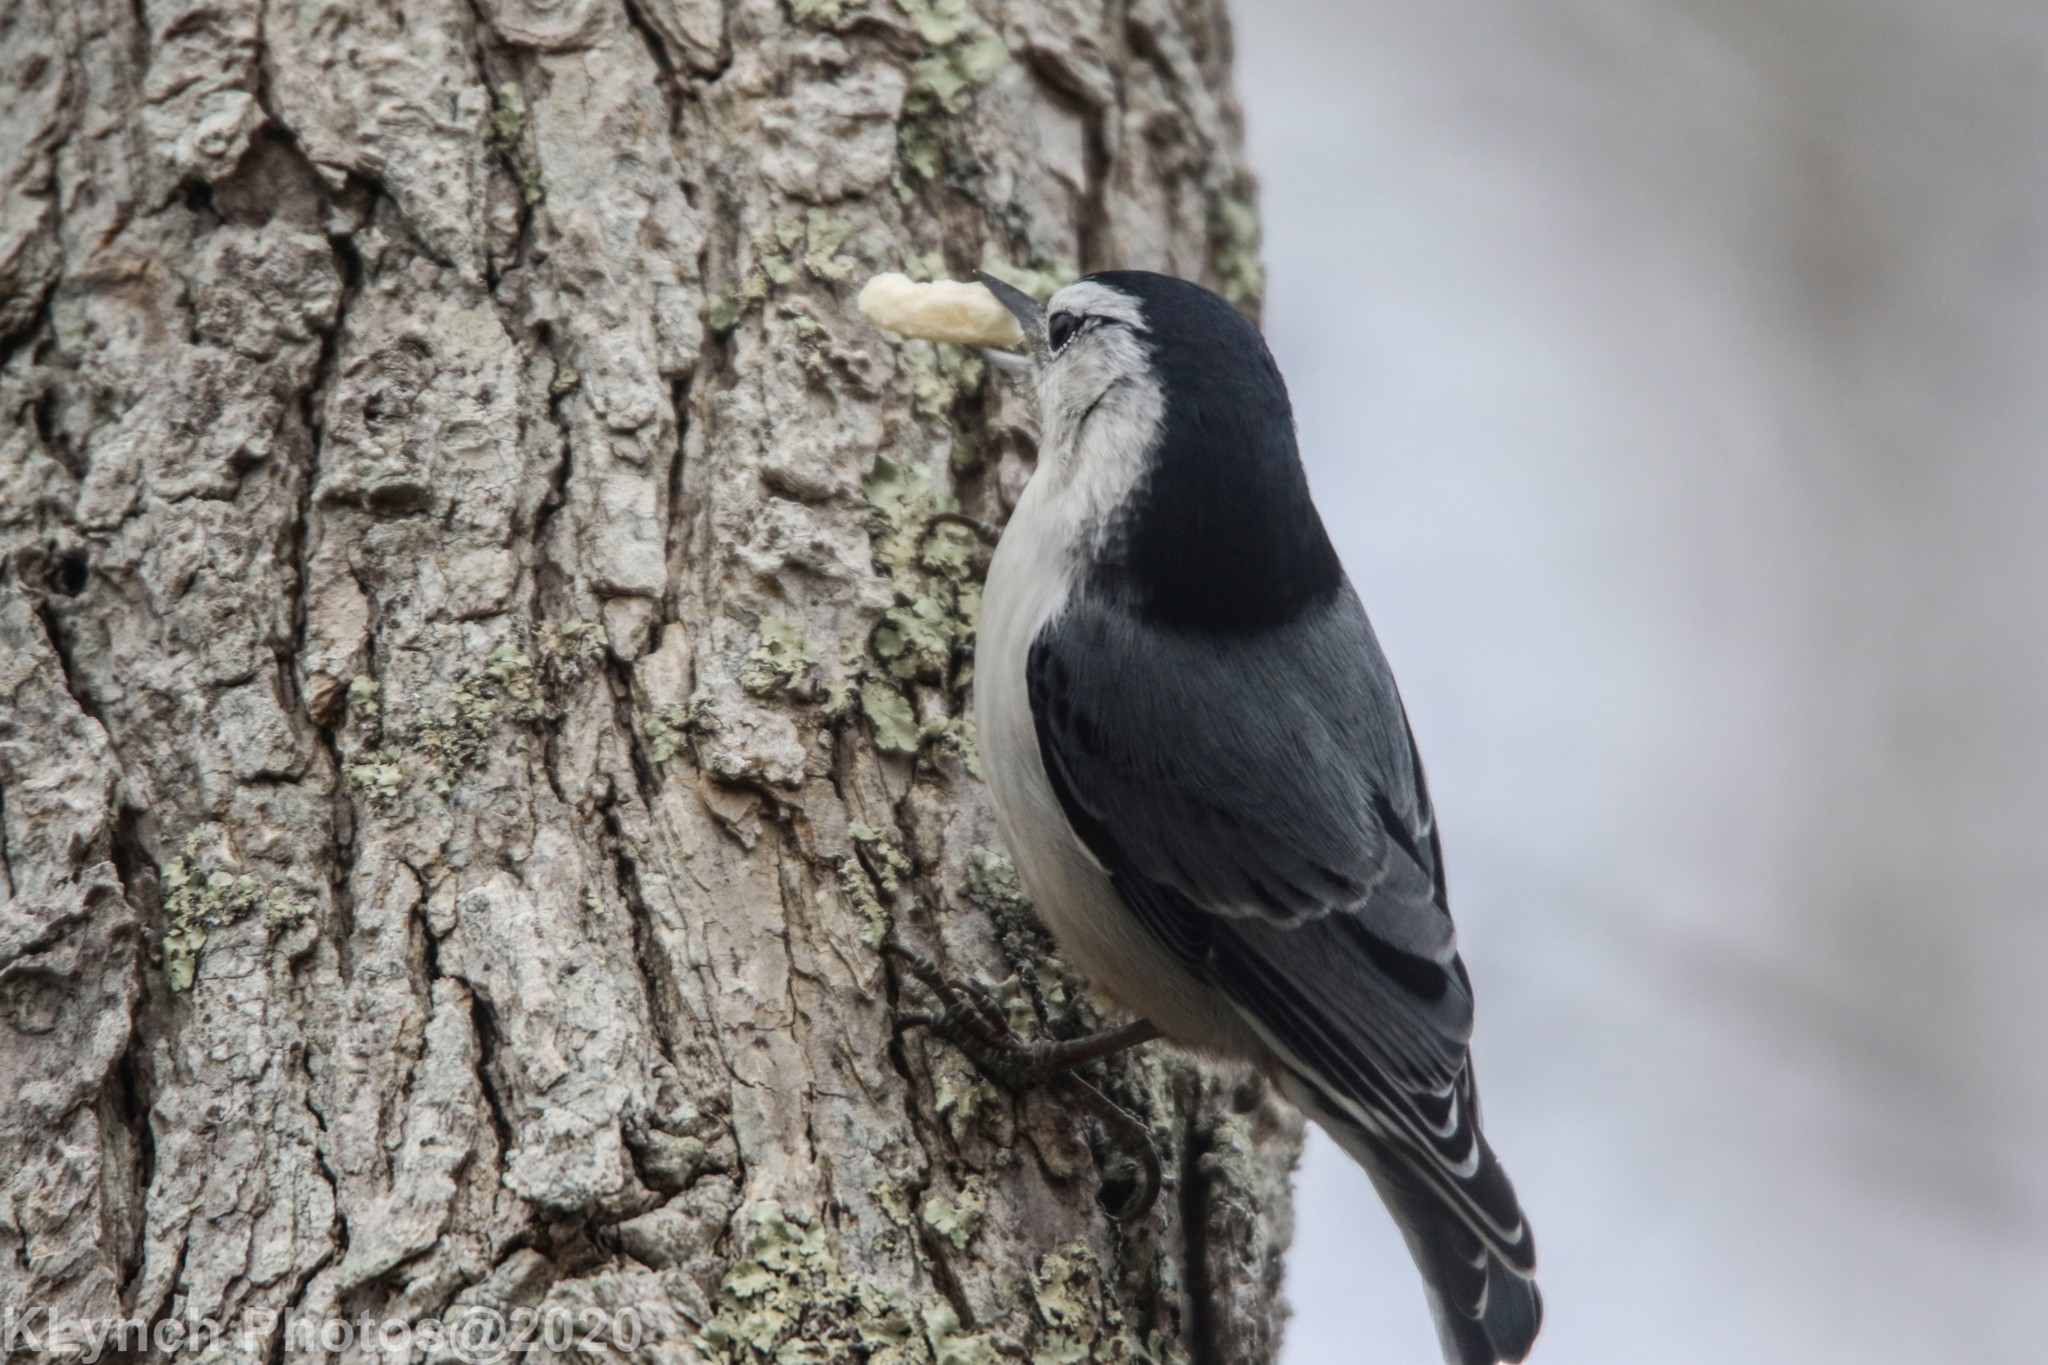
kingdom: Animalia
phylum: Chordata
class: Aves
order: Passeriformes
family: Sittidae
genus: Sitta
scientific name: Sitta carolinensis
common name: White-breasted nuthatch
